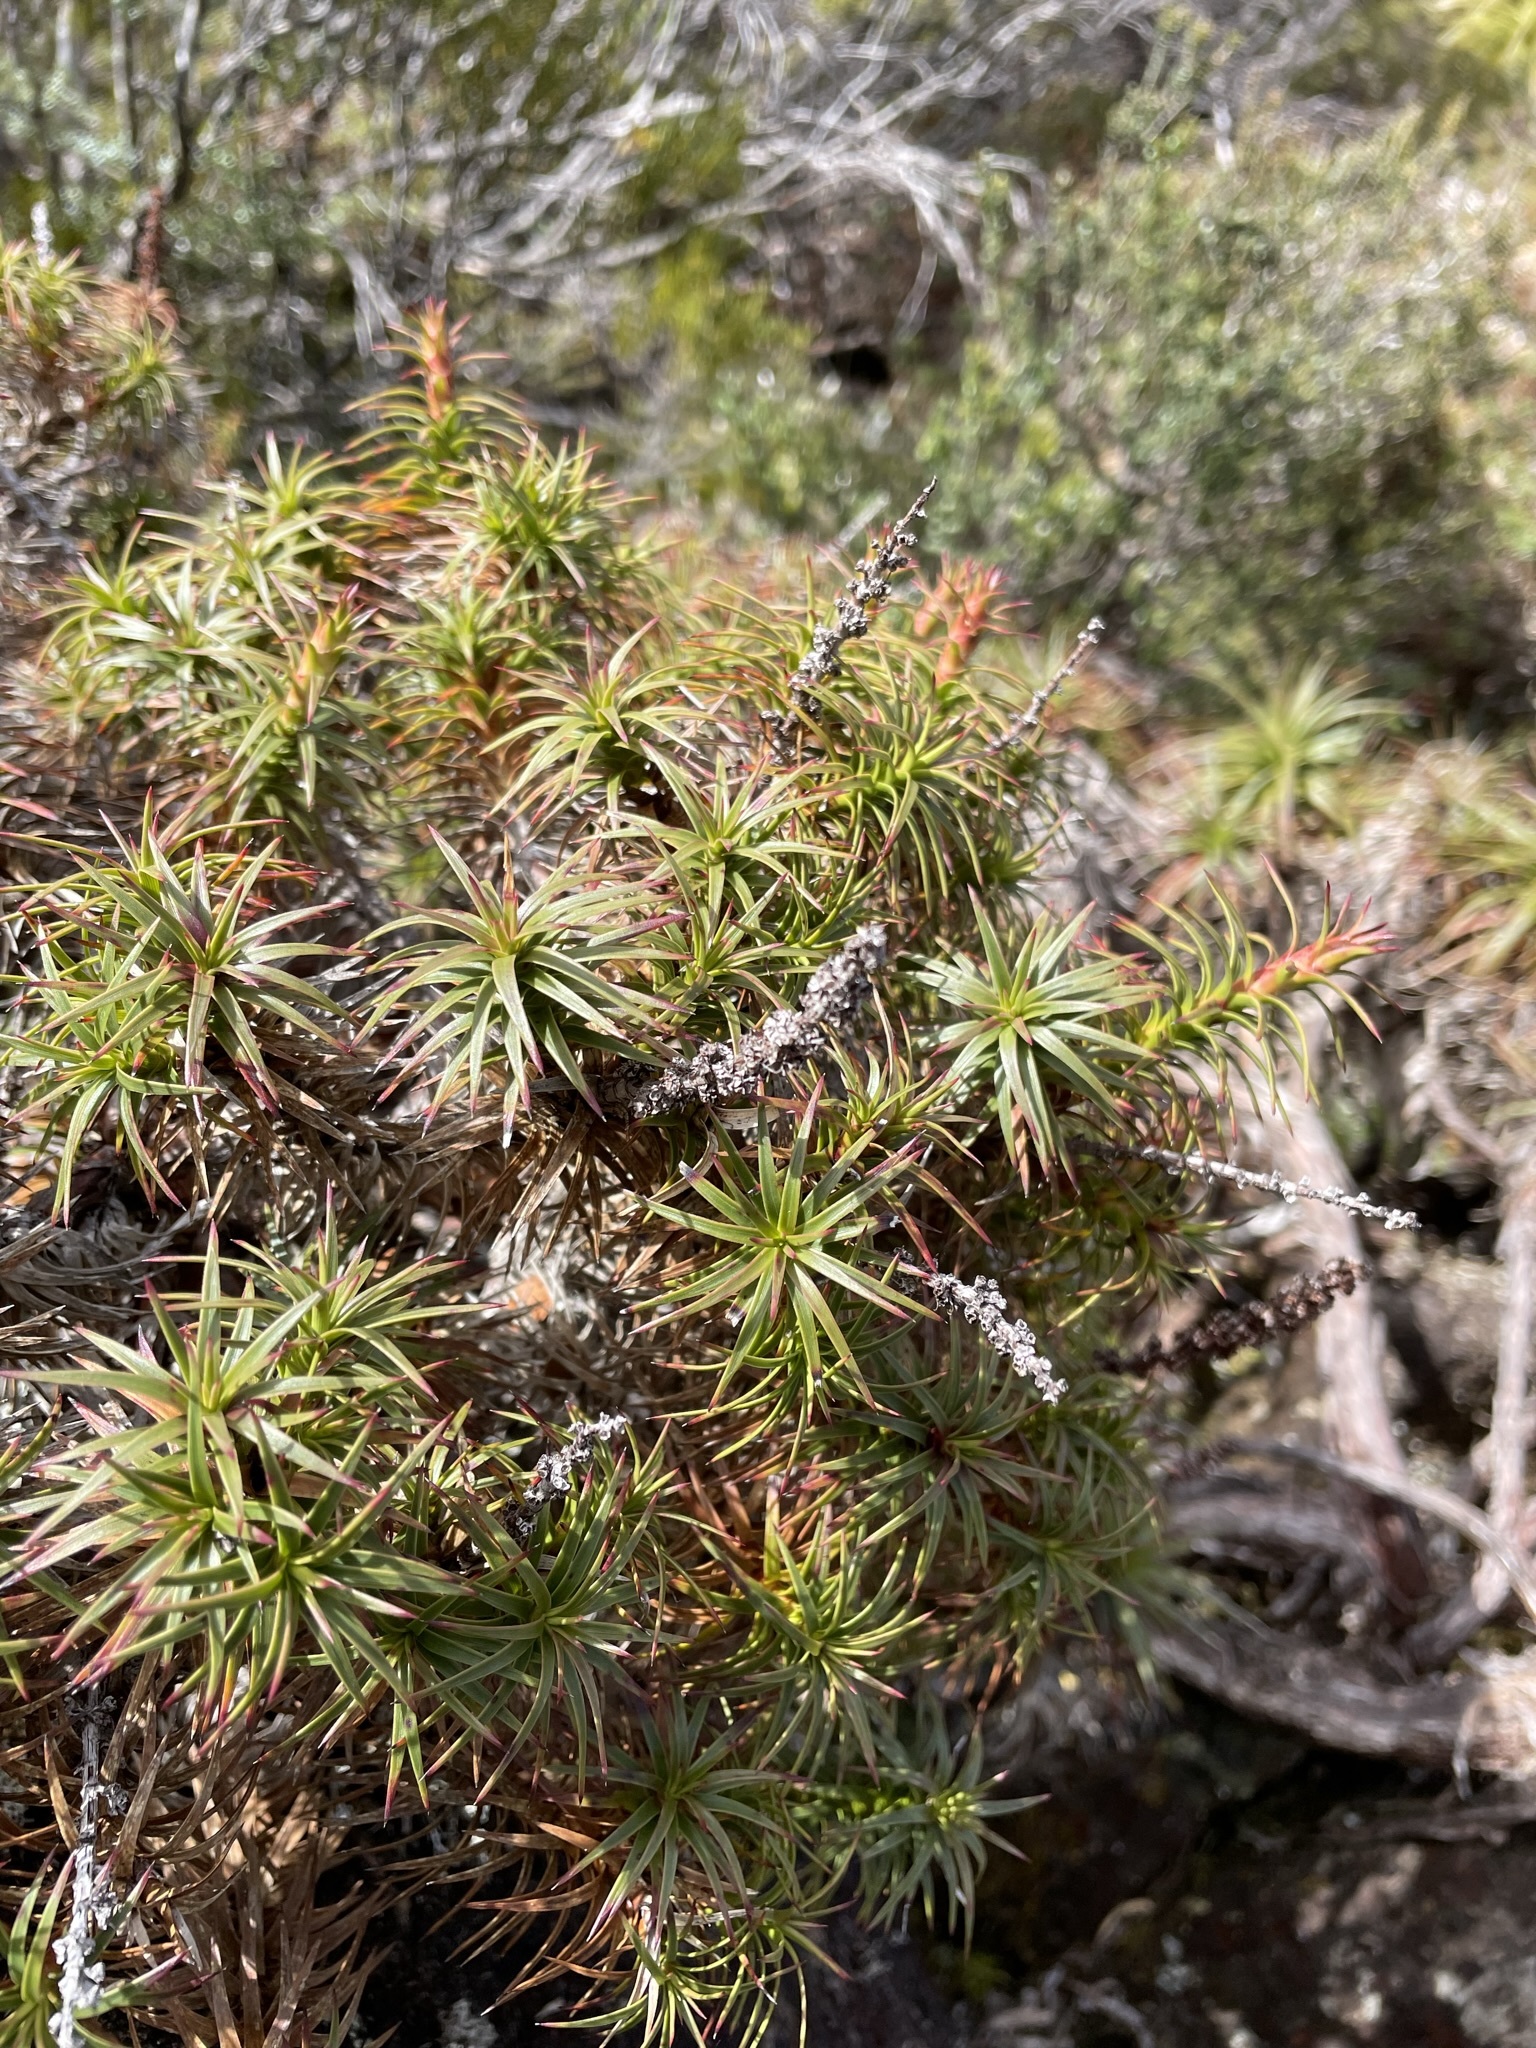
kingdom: Plantae
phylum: Tracheophyta
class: Magnoliopsida
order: Ericales
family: Ericaceae
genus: Dracophyllum
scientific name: Dracophyllum persistentifolium
